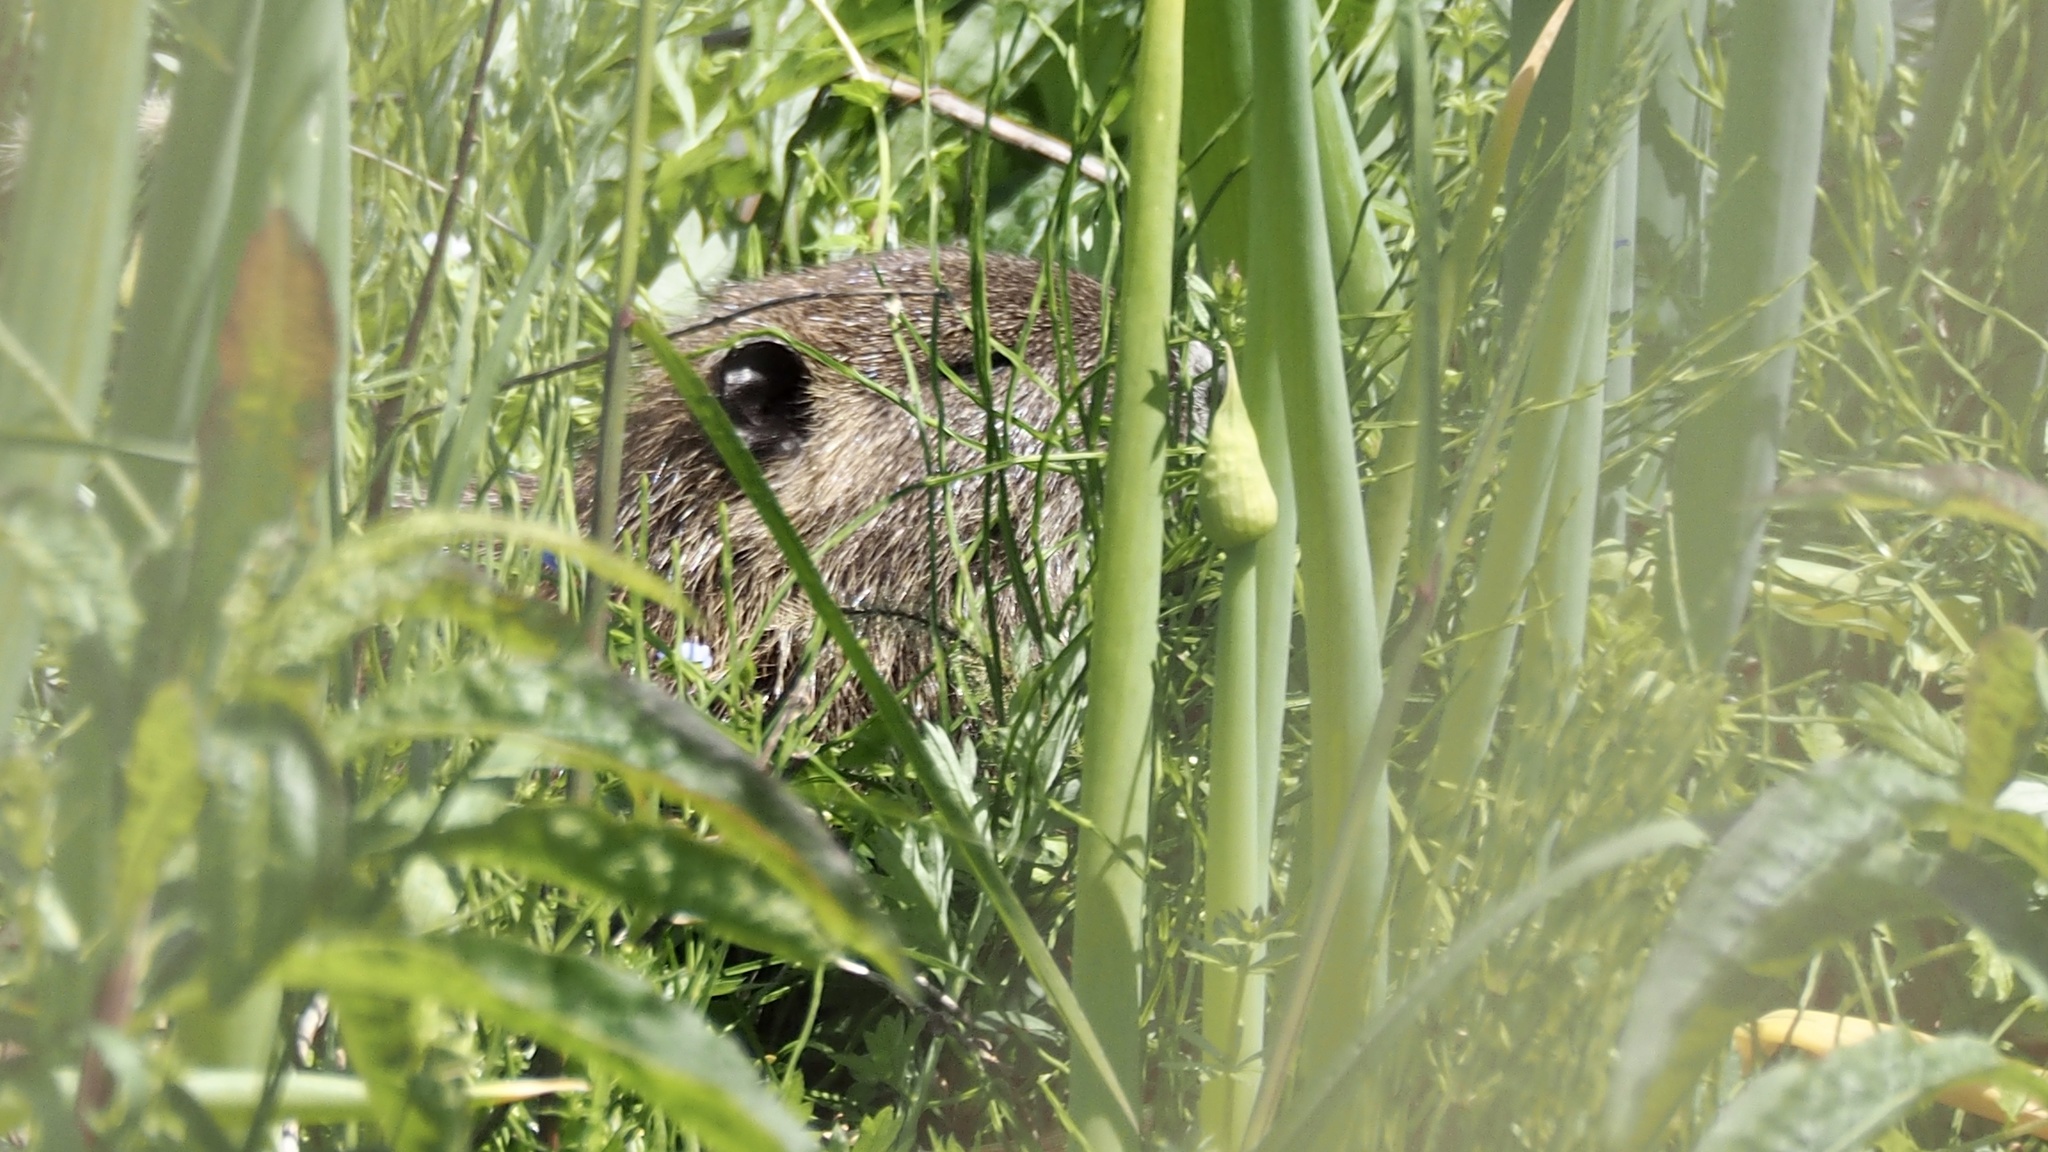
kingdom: Animalia
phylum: Chordata
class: Mammalia
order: Rodentia
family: Myocastoridae
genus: Myocastor
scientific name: Myocastor coypus
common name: Coypu
